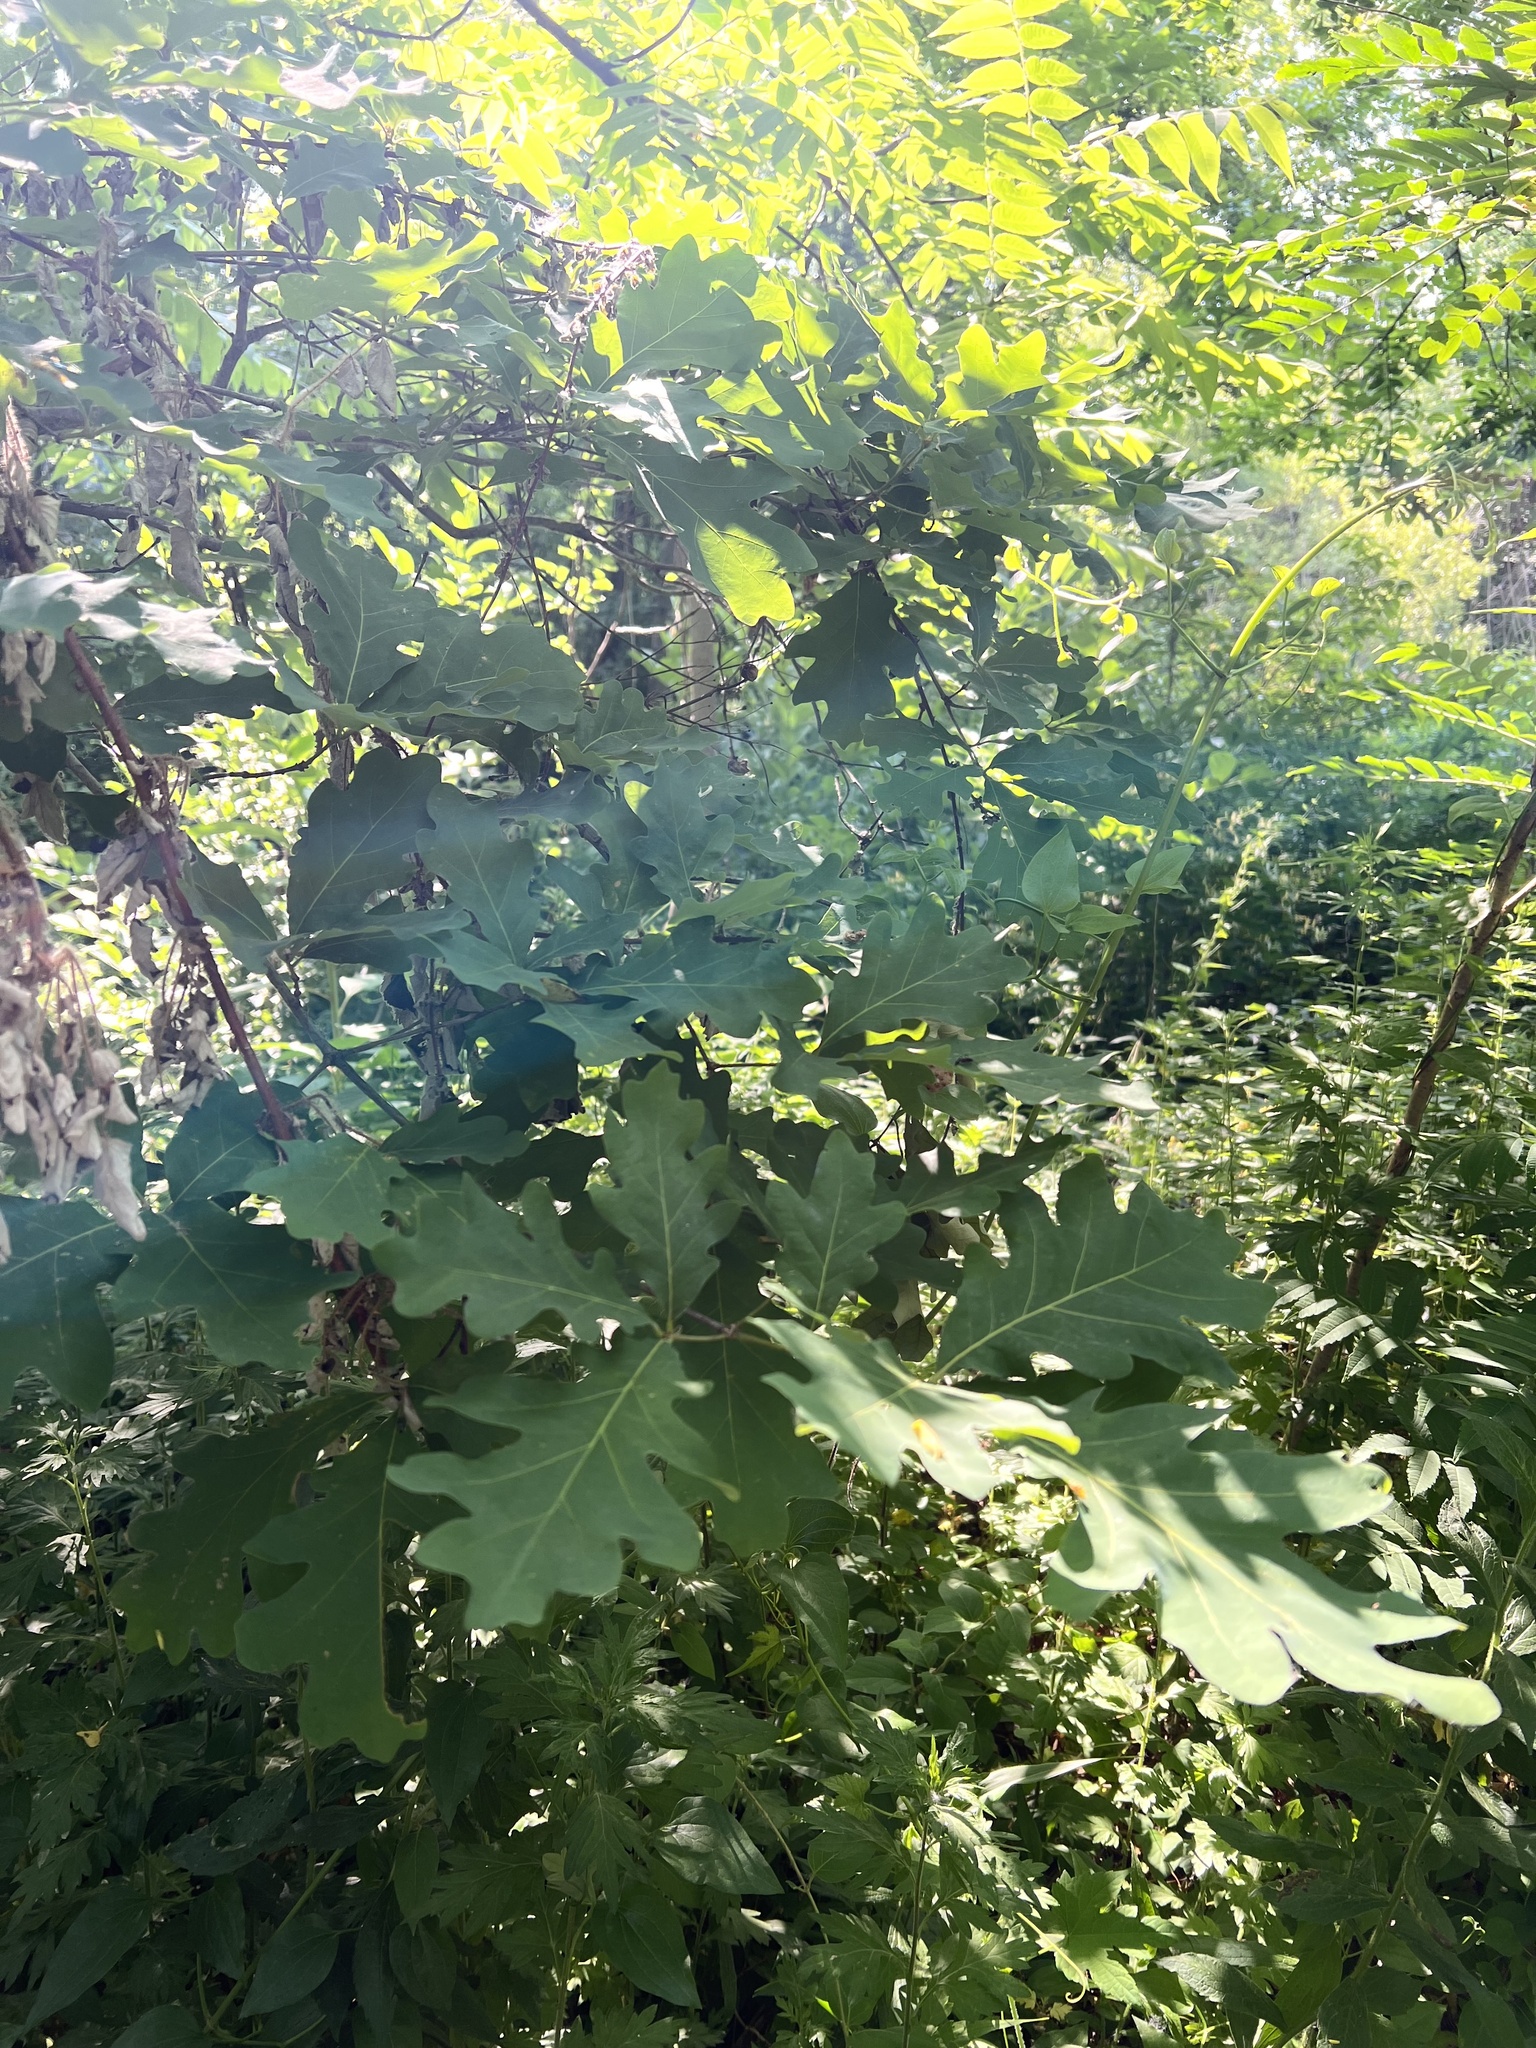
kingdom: Plantae
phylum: Tracheophyta
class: Magnoliopsida
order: Fagales
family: Fagaceae
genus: Quercus
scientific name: Quercus alba
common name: White oak
